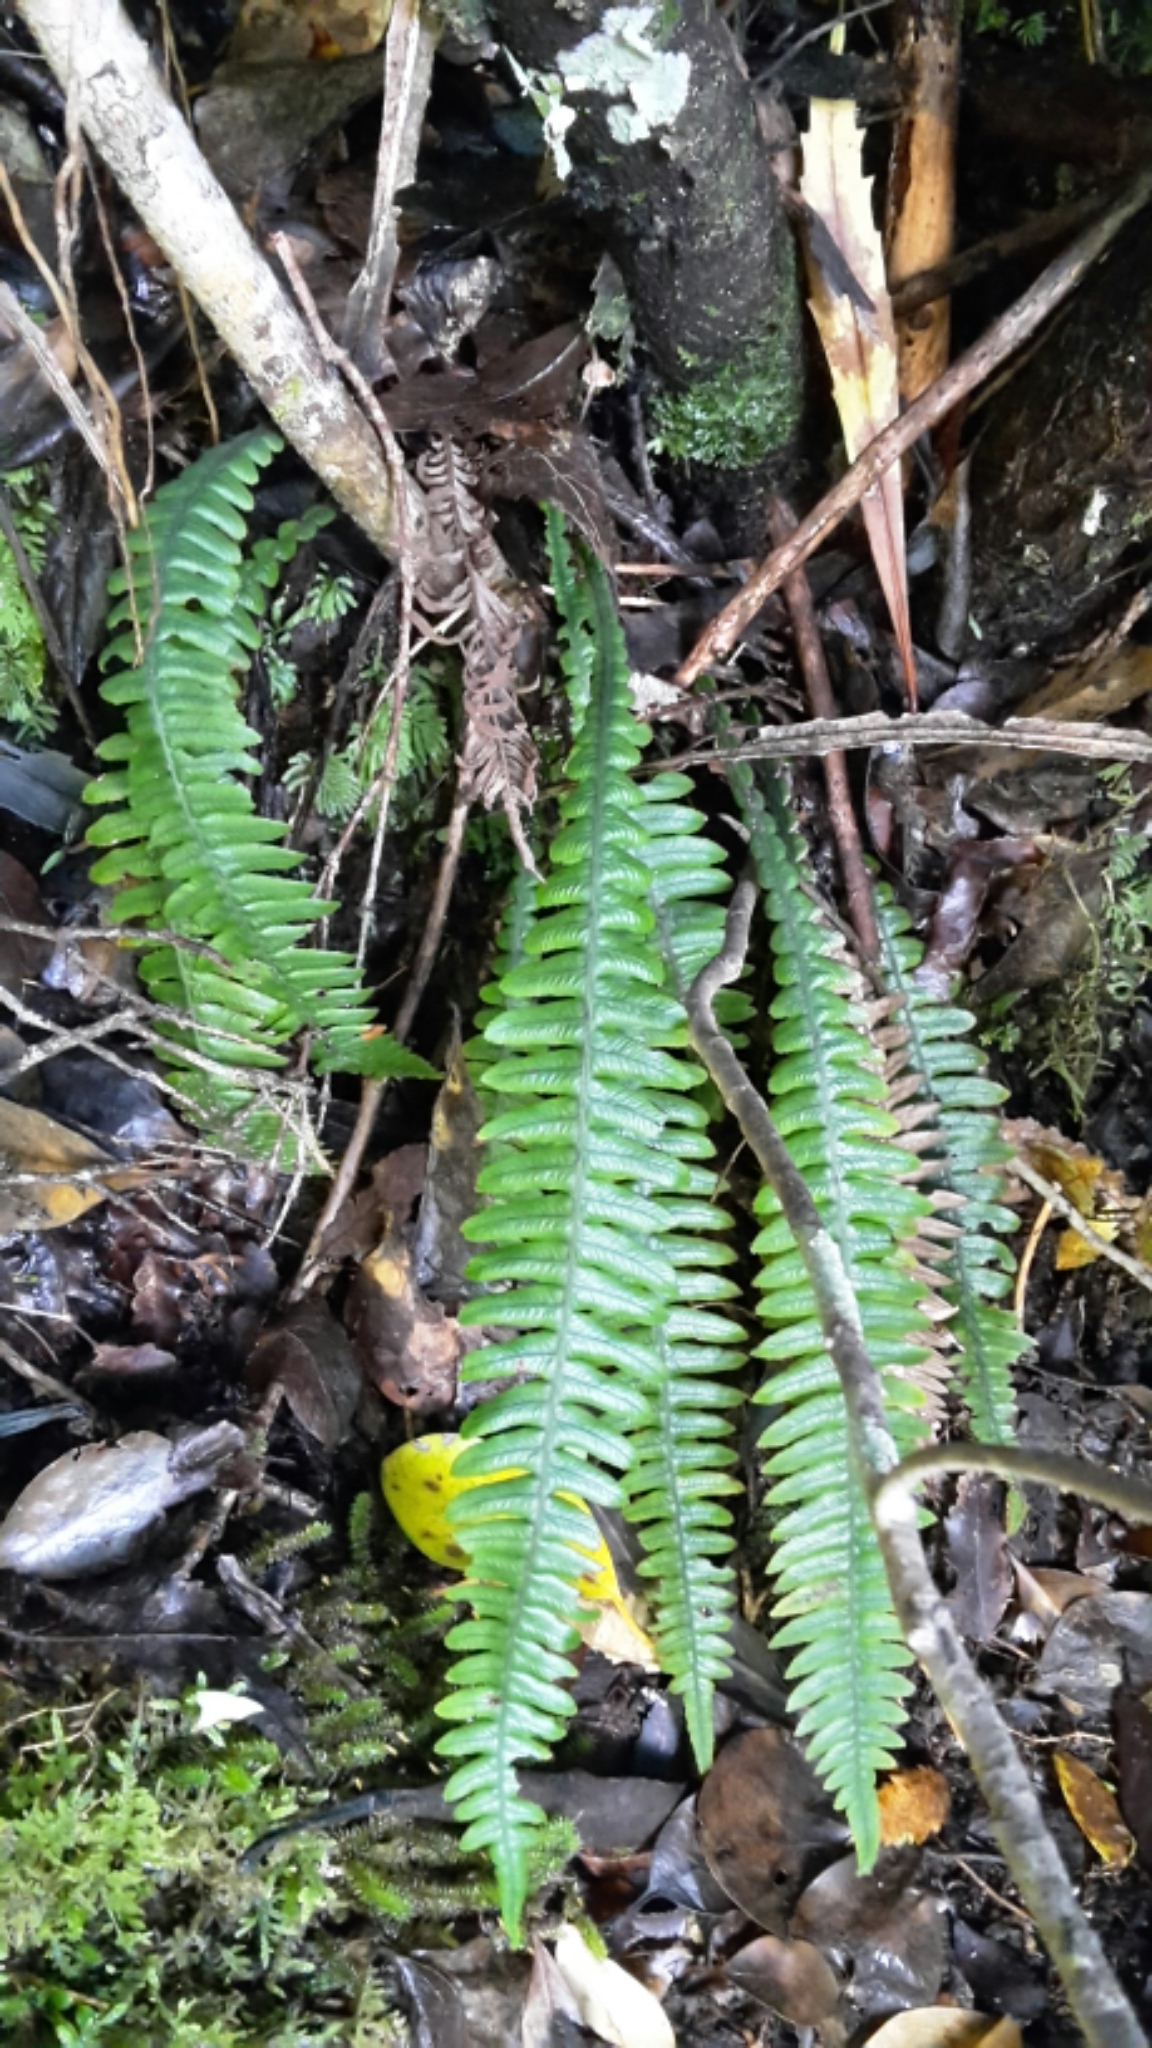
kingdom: Plantae
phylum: Tracheophyta
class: Polypodiopsida
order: Polypodiales
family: Blechnaceae
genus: Austroblechnum
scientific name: Austroblechnum lanceolatum
